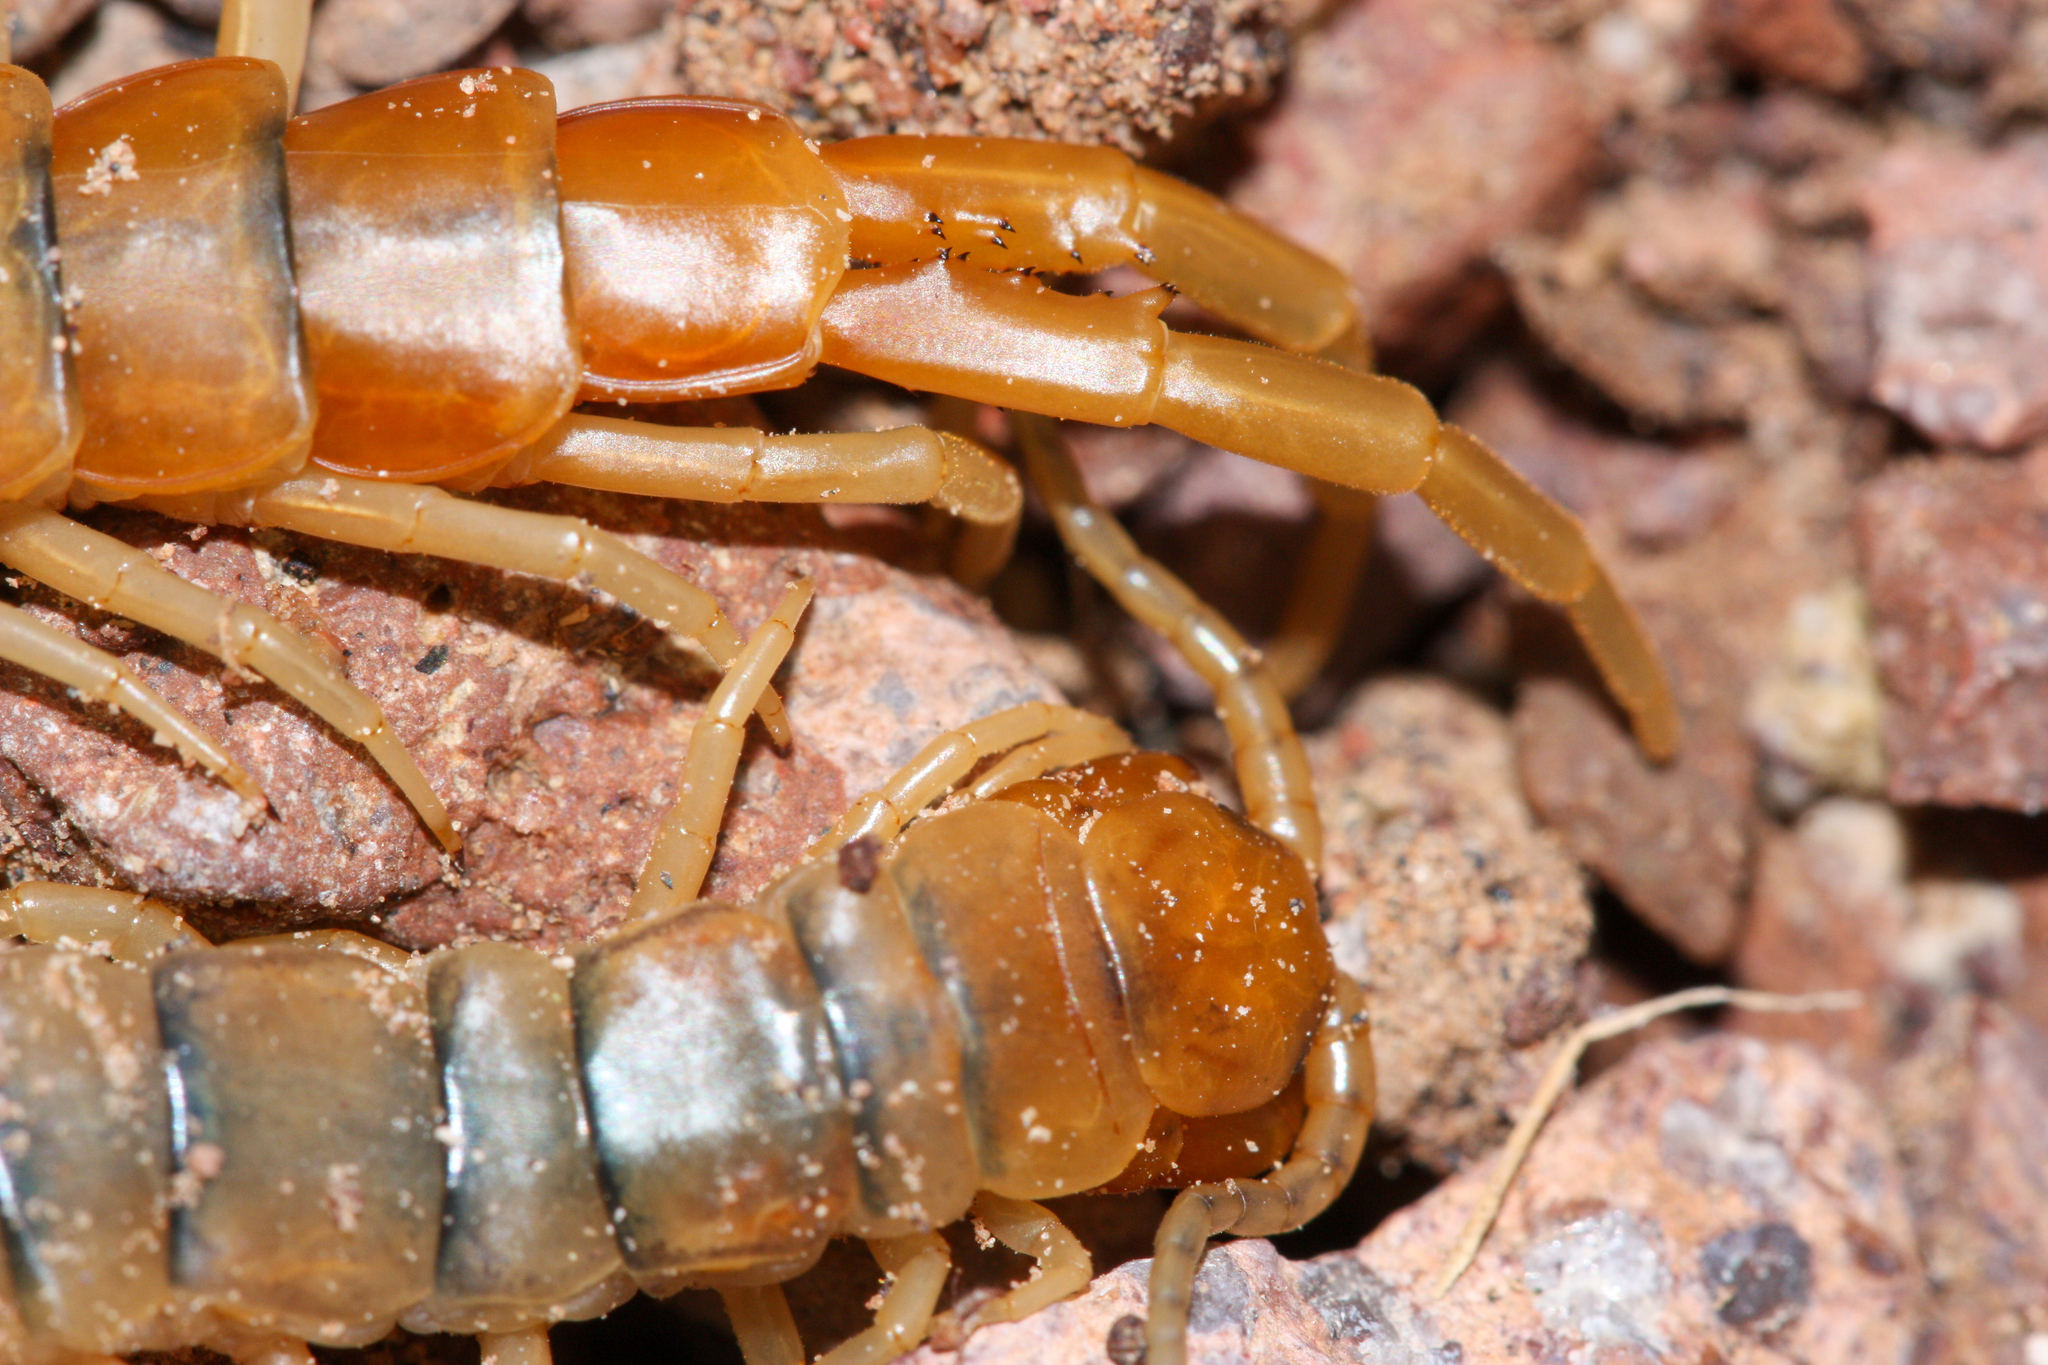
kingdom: Animalia
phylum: Arthropoda
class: Chilopoda
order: Scolopendromorpha
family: Scolopendridae
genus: Scolopendra
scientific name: Scolopendra polymorpha
